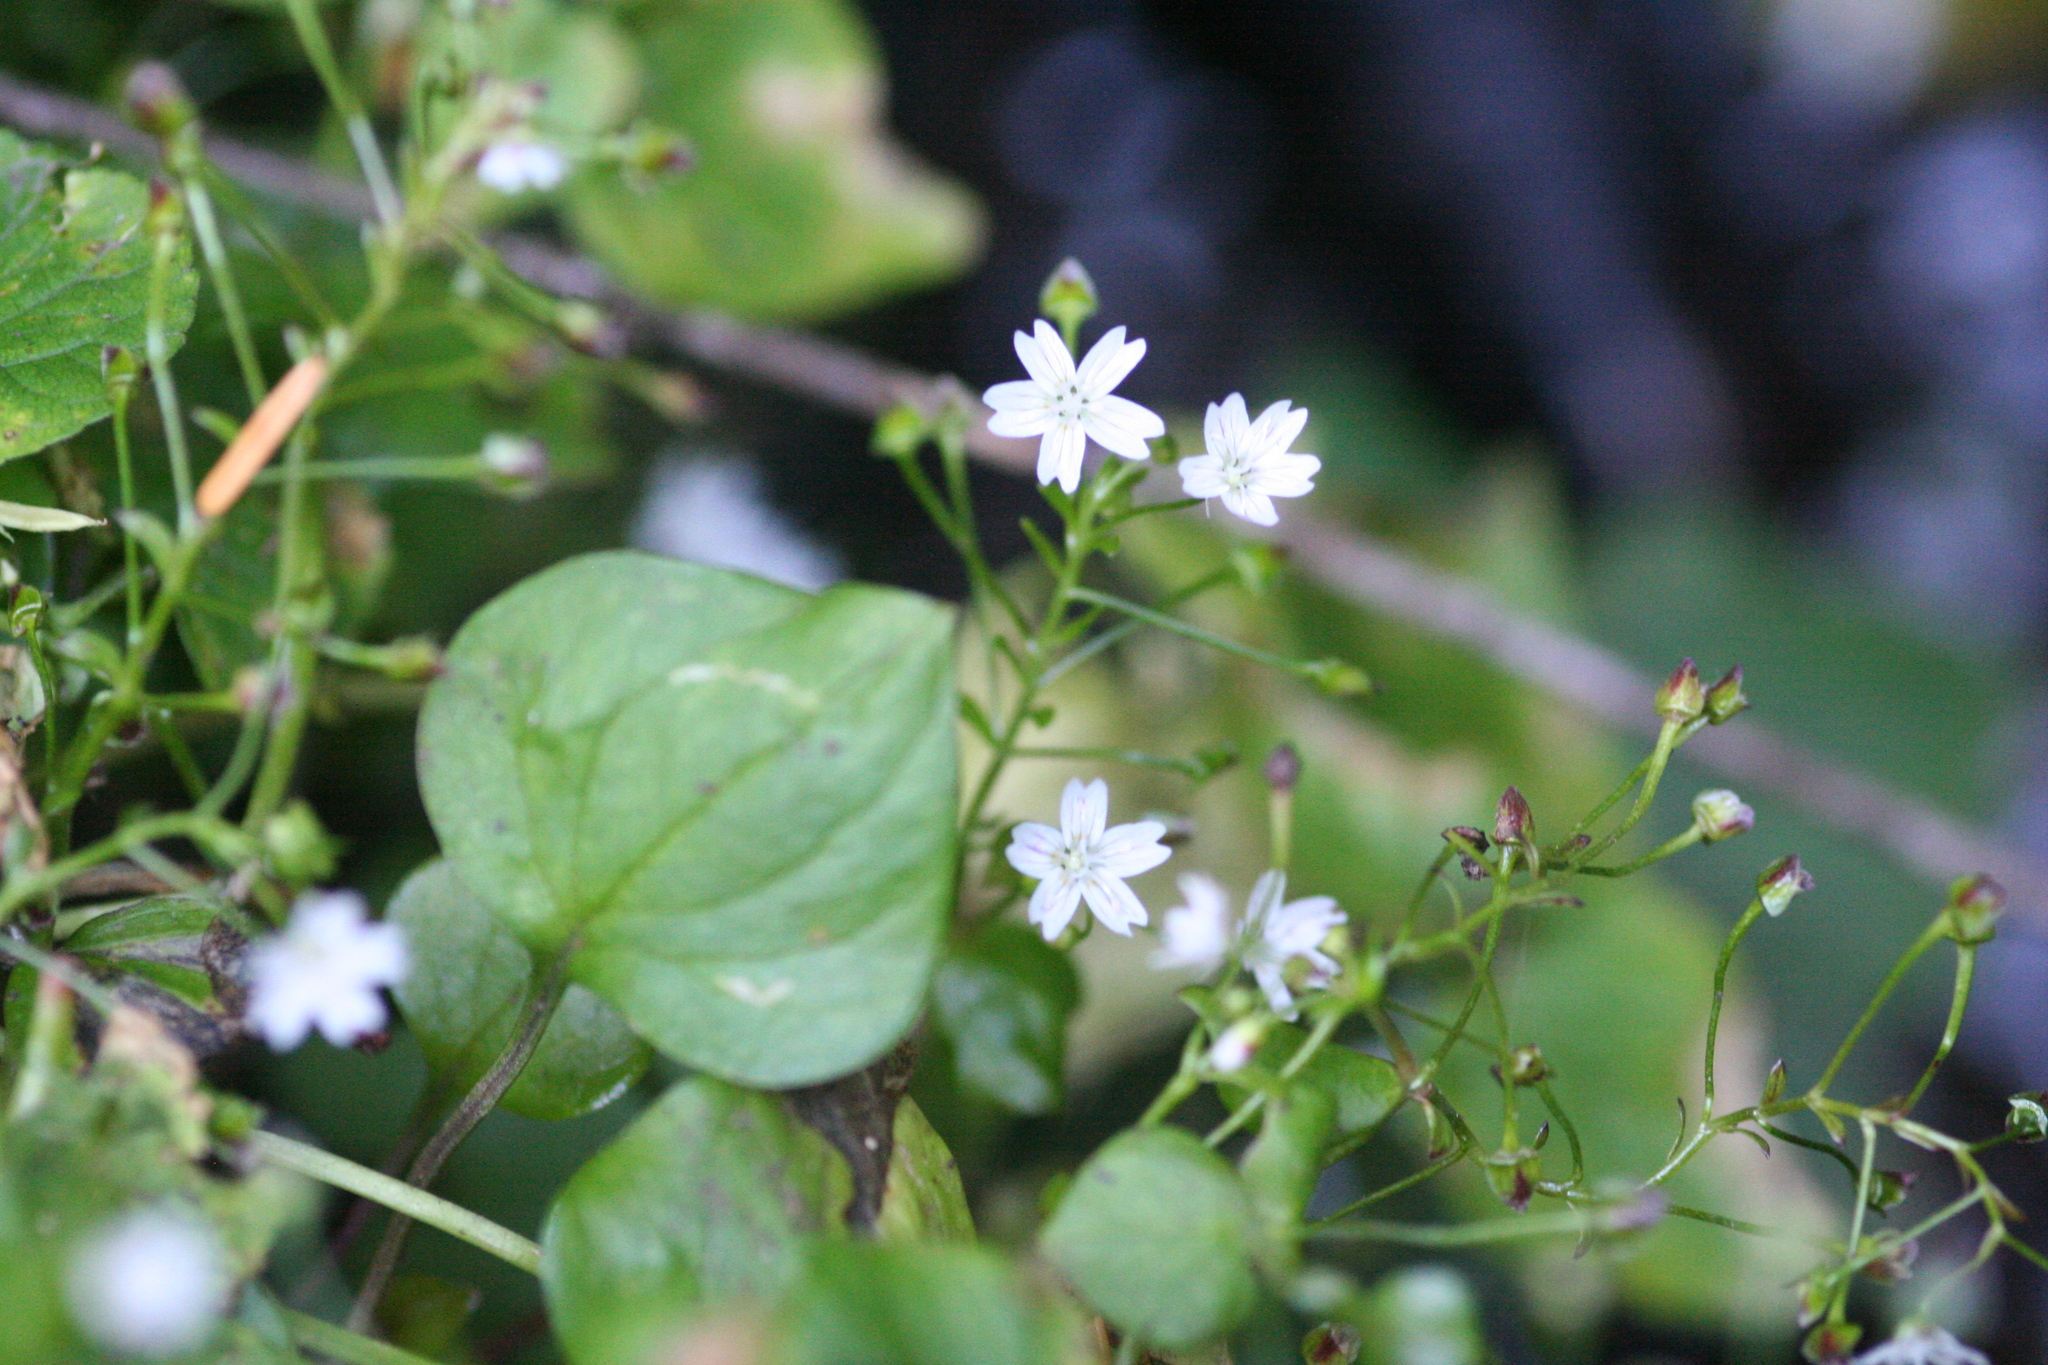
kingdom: Plantae
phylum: Tracheophyta
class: Magnoliopsida
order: Caryophyllales
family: Montiaceae
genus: Claytonia
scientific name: Claytonia sibirica
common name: Pink purslane
